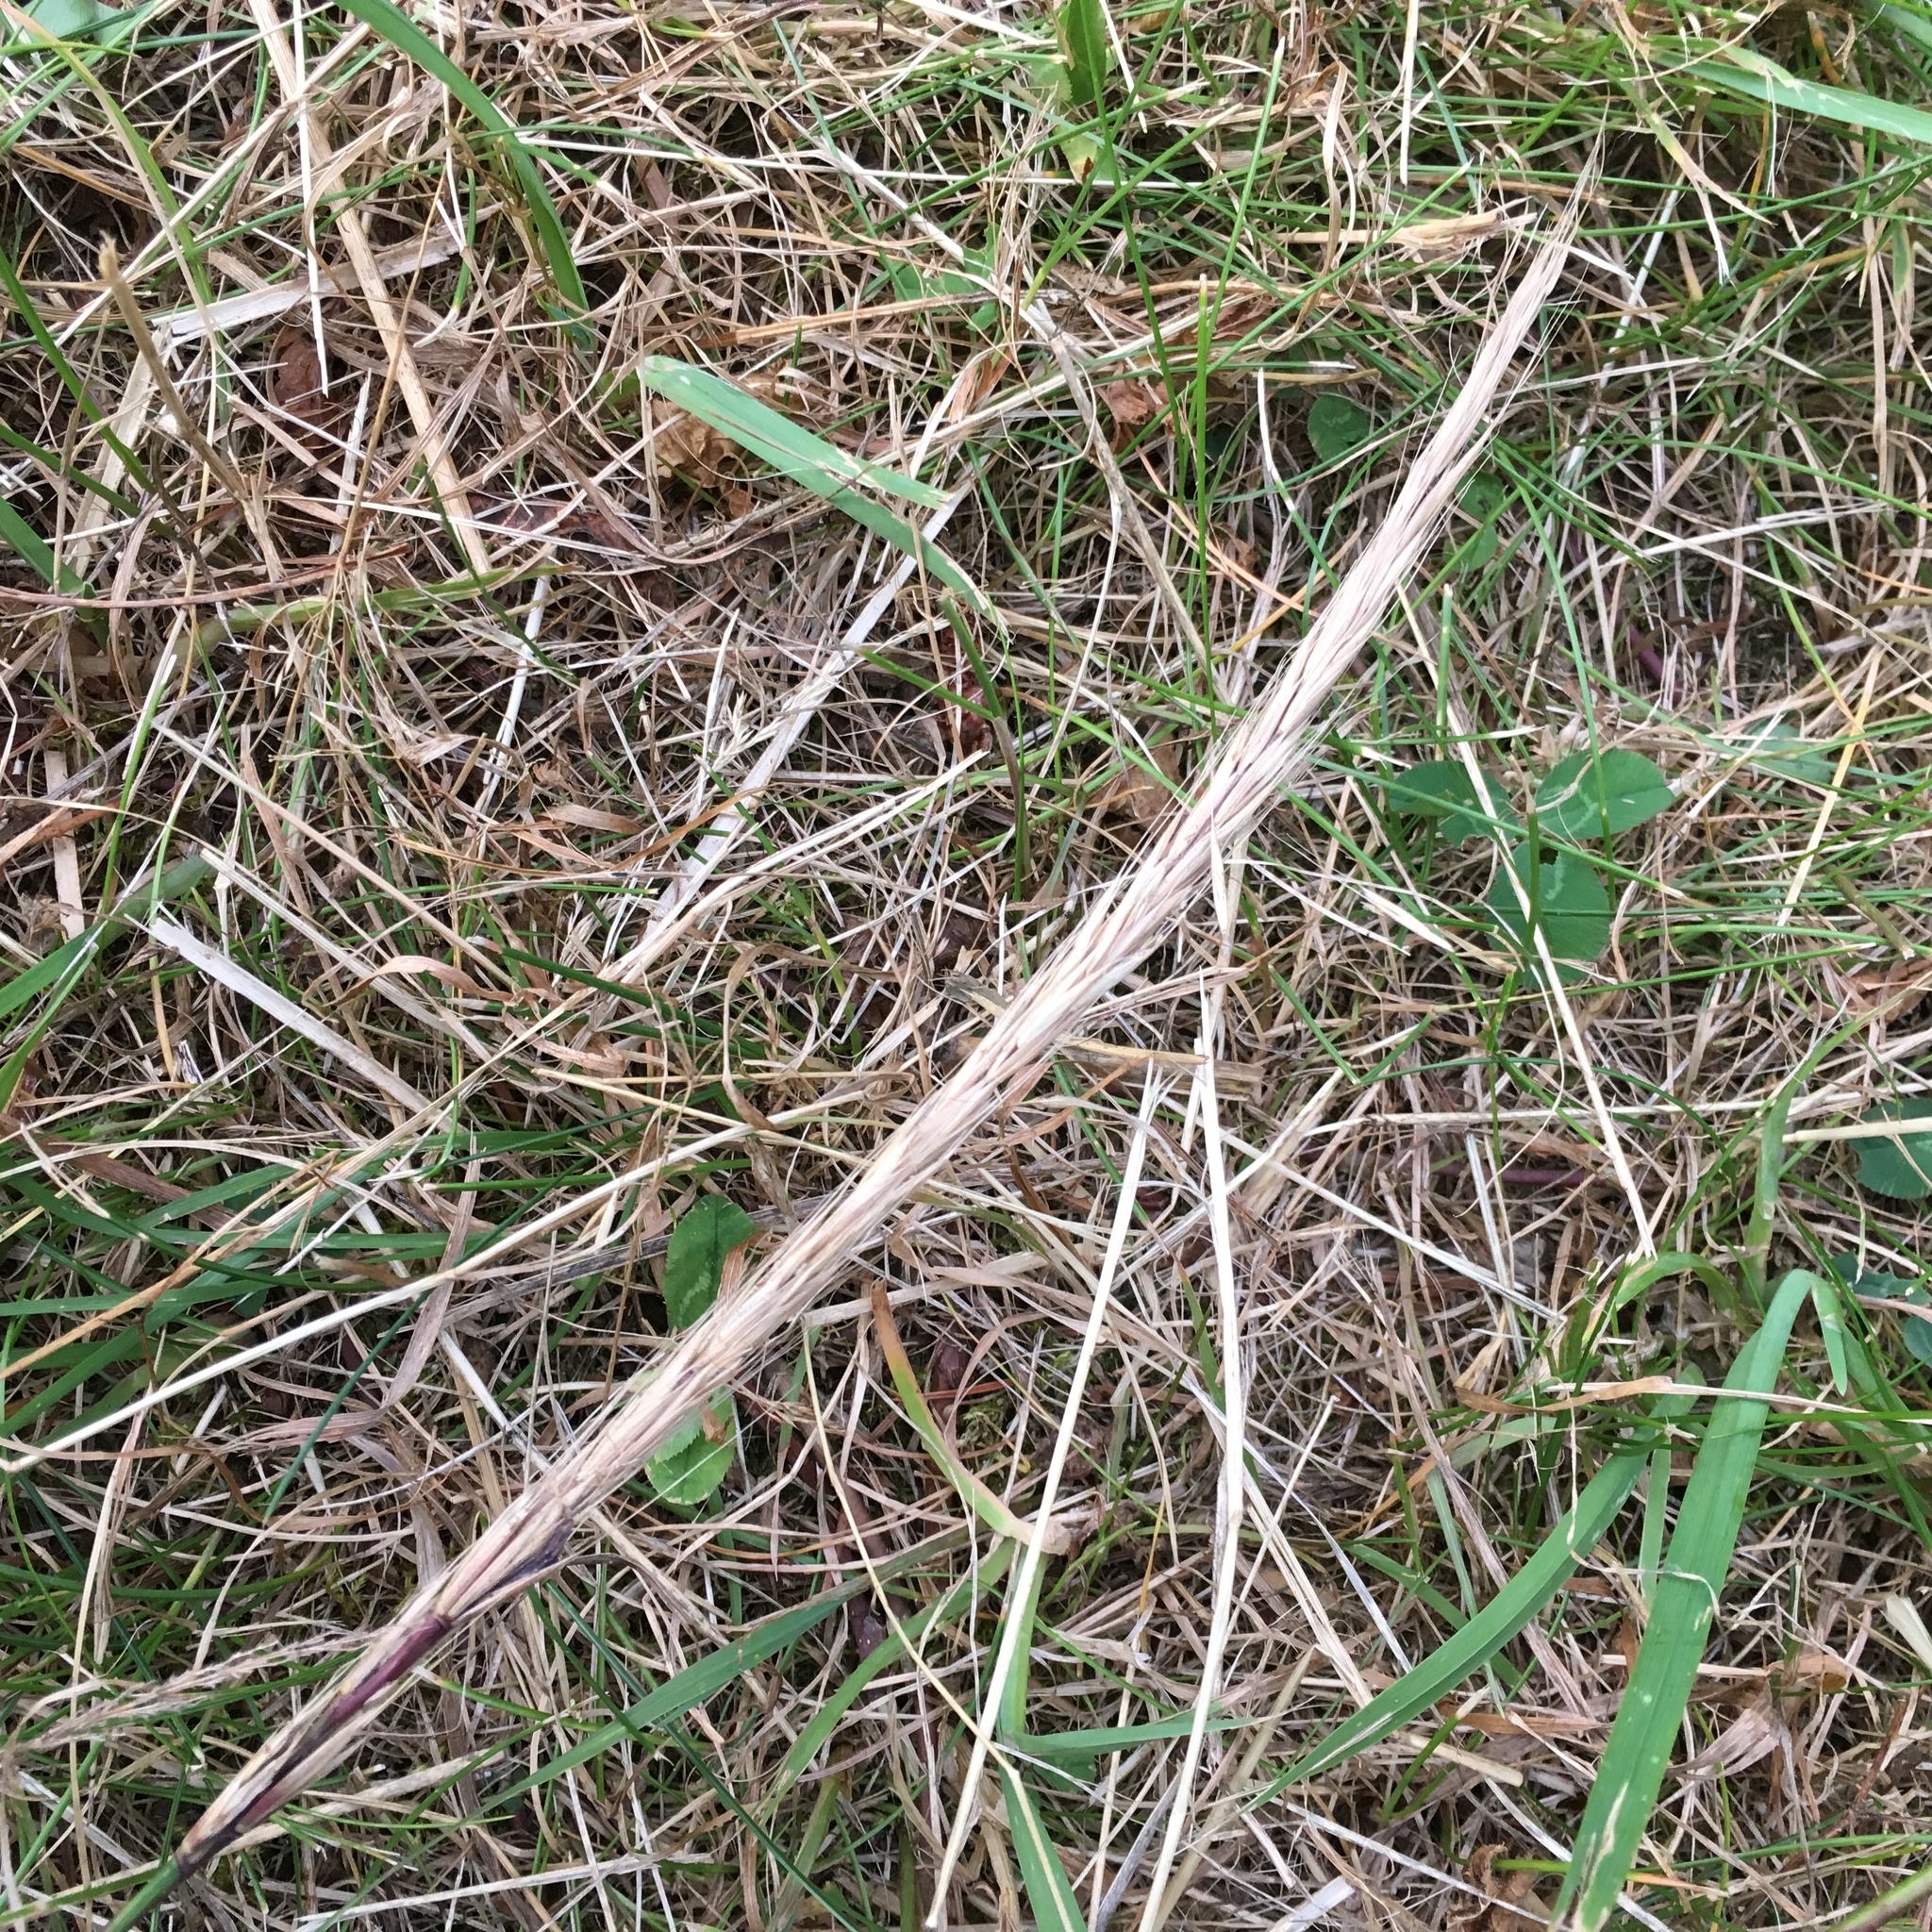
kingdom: Plantae
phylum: Tracheophyta
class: Liliopsida
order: Poales
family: Poaceae
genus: Elymus
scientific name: Elymus glaucus
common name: Blue wild rye
